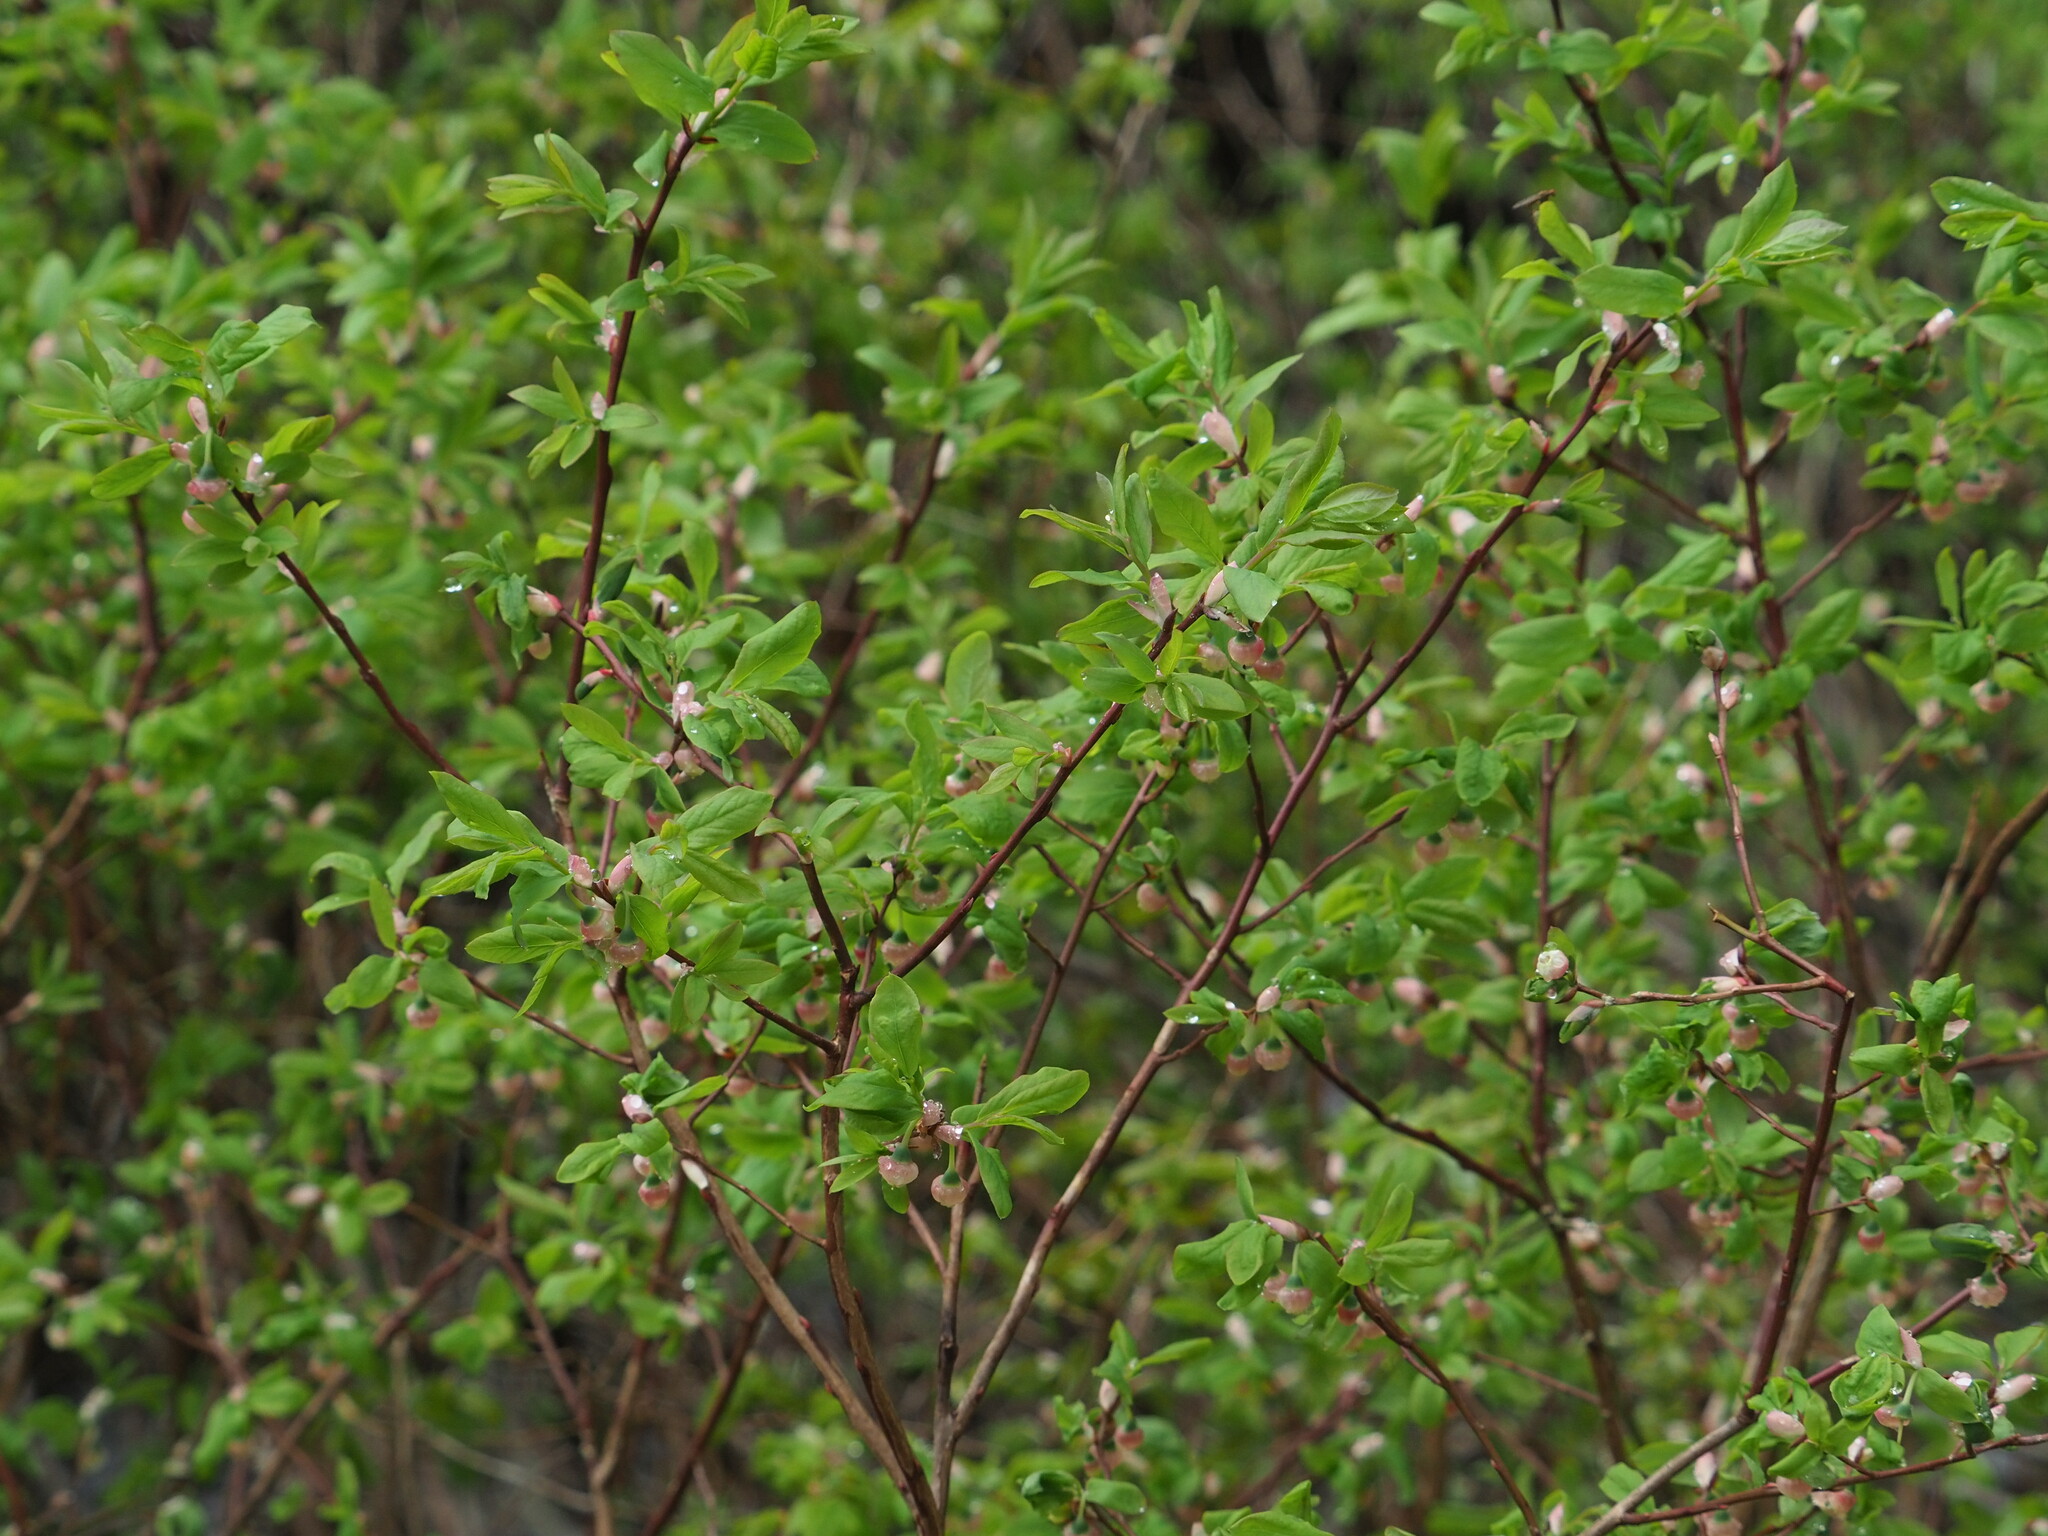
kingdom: Plantae
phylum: Tracheophyta
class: Magnoliopsida
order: Ericales
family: Ericaceae
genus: Vaccinium
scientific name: Vaccinium membranaceum
